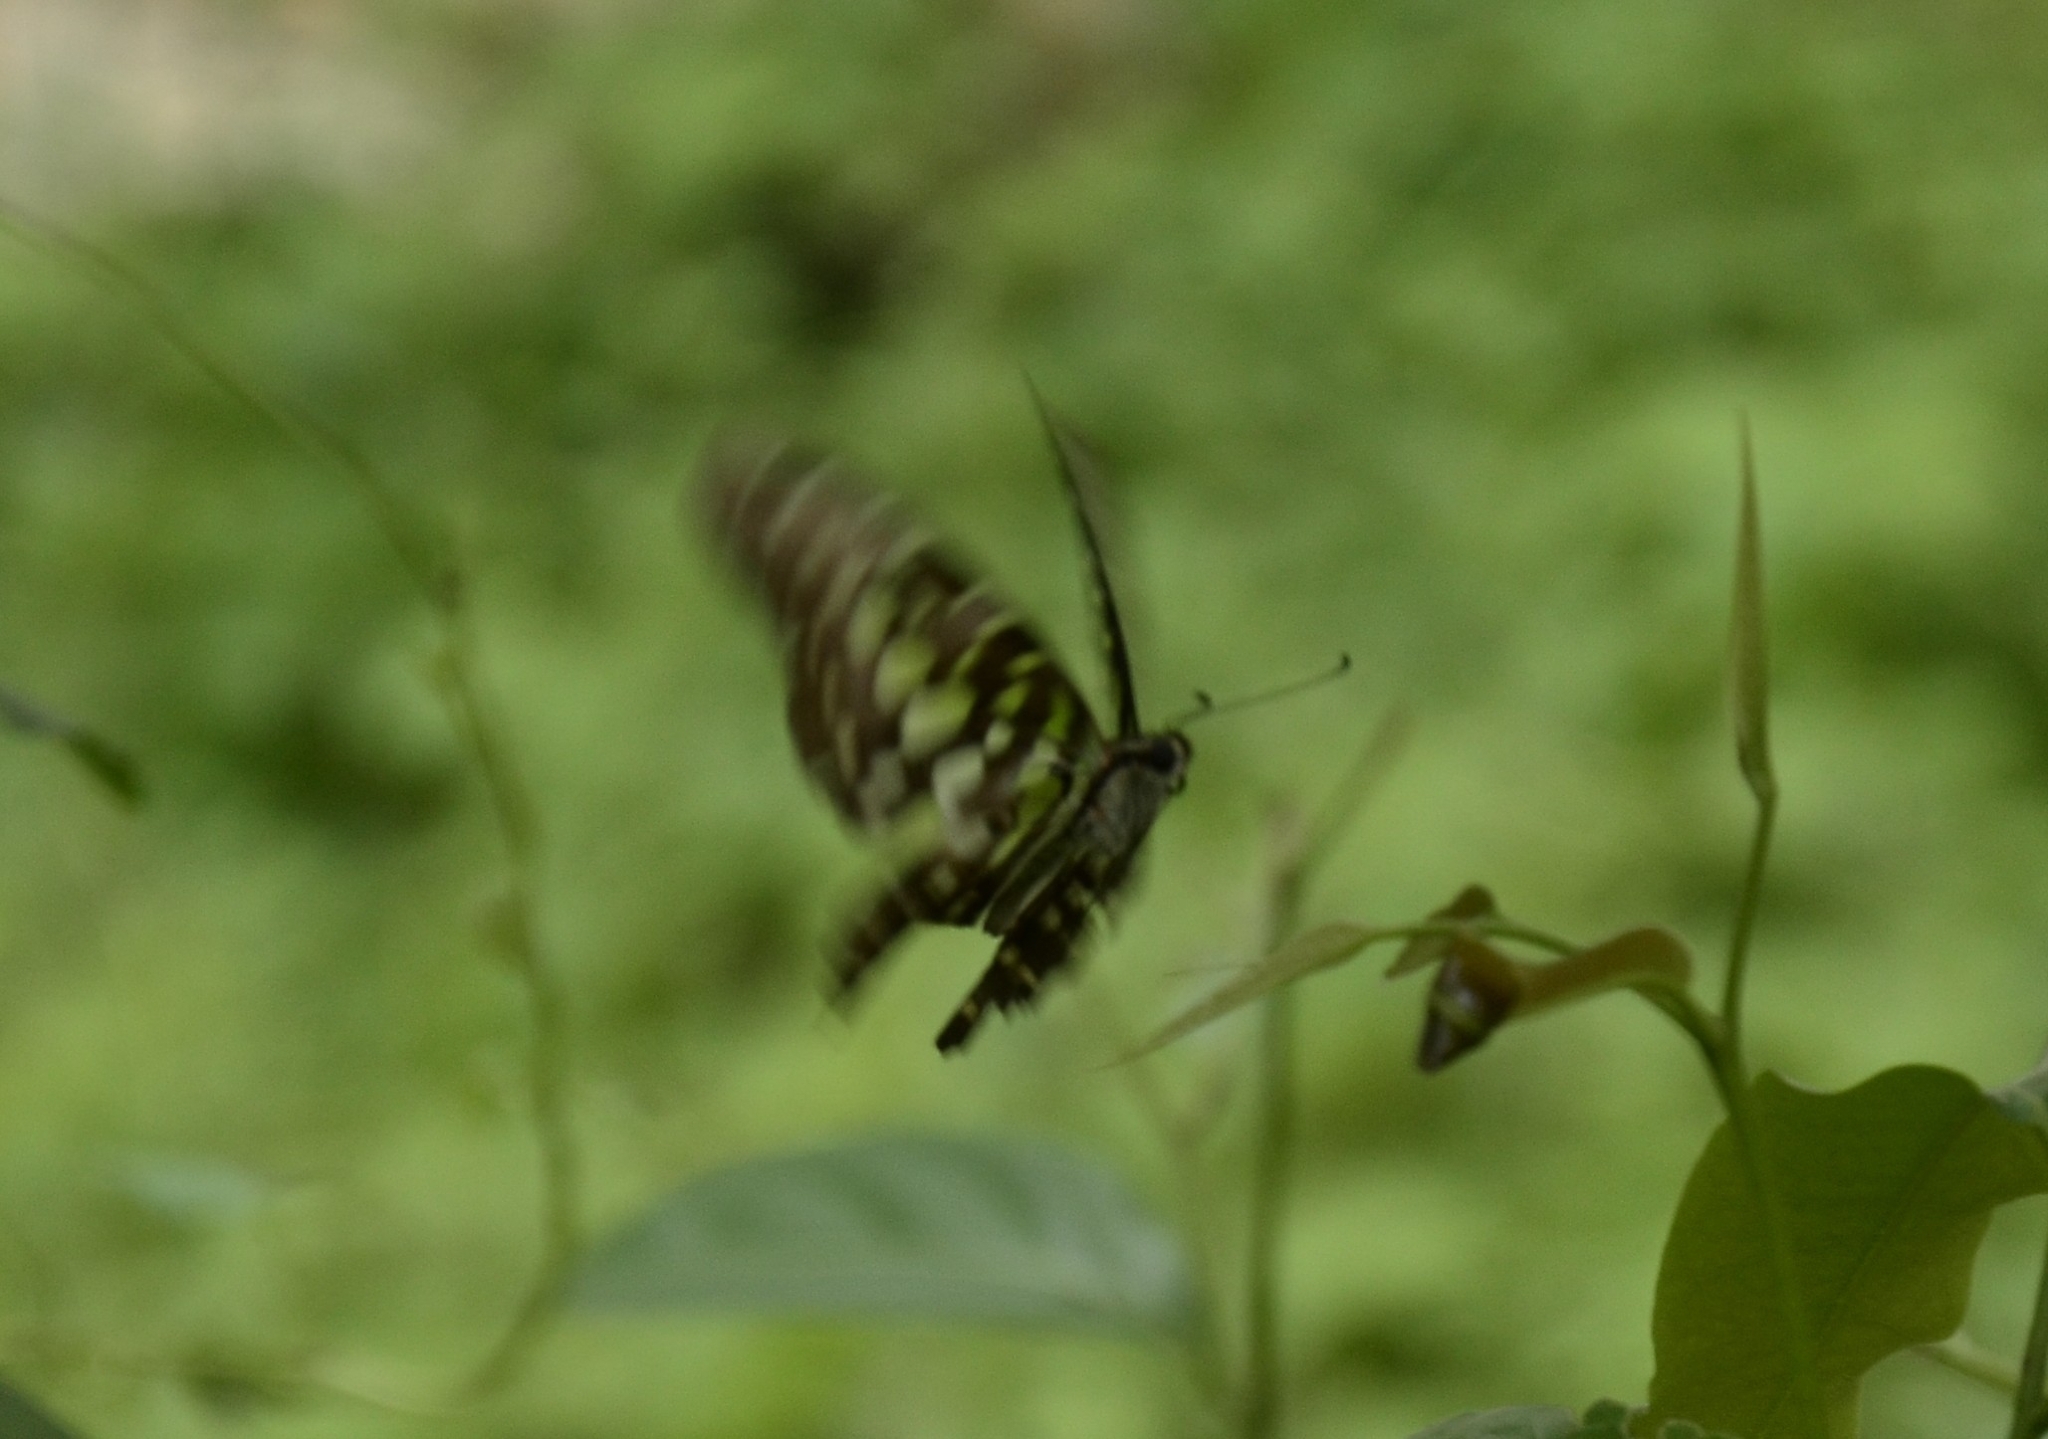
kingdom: Animalia
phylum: Arthropoda
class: Insecta
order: Lepidoptera
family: Papilionidae
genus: Graphium
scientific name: Graphium agamemnon
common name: Tailed jay
